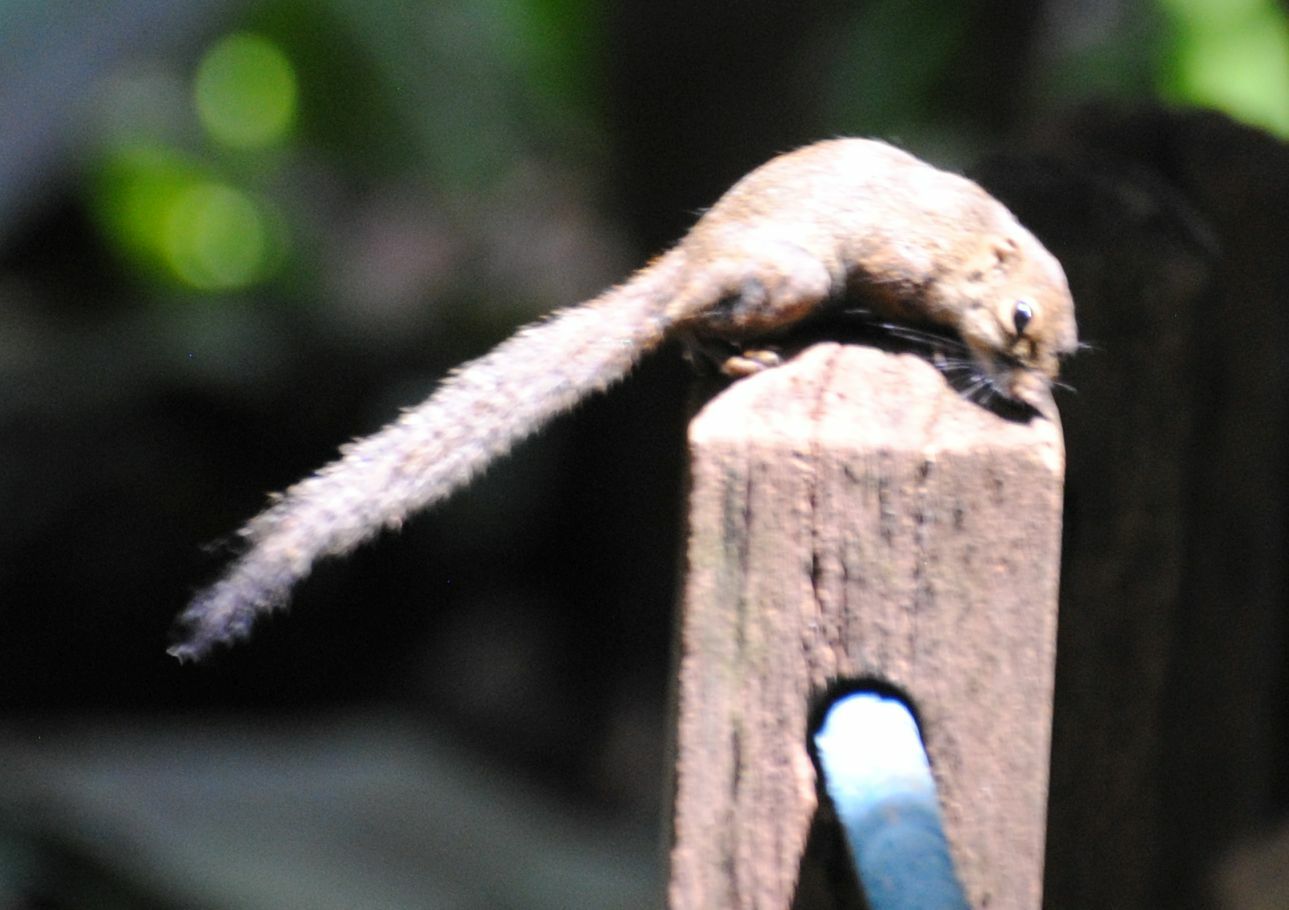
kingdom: Animalia
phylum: Chordata
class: Mammalia
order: Rodentia
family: Sciuridae
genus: Sundasciurus
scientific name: Sundasciurus tenuis
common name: Slender squirrel
